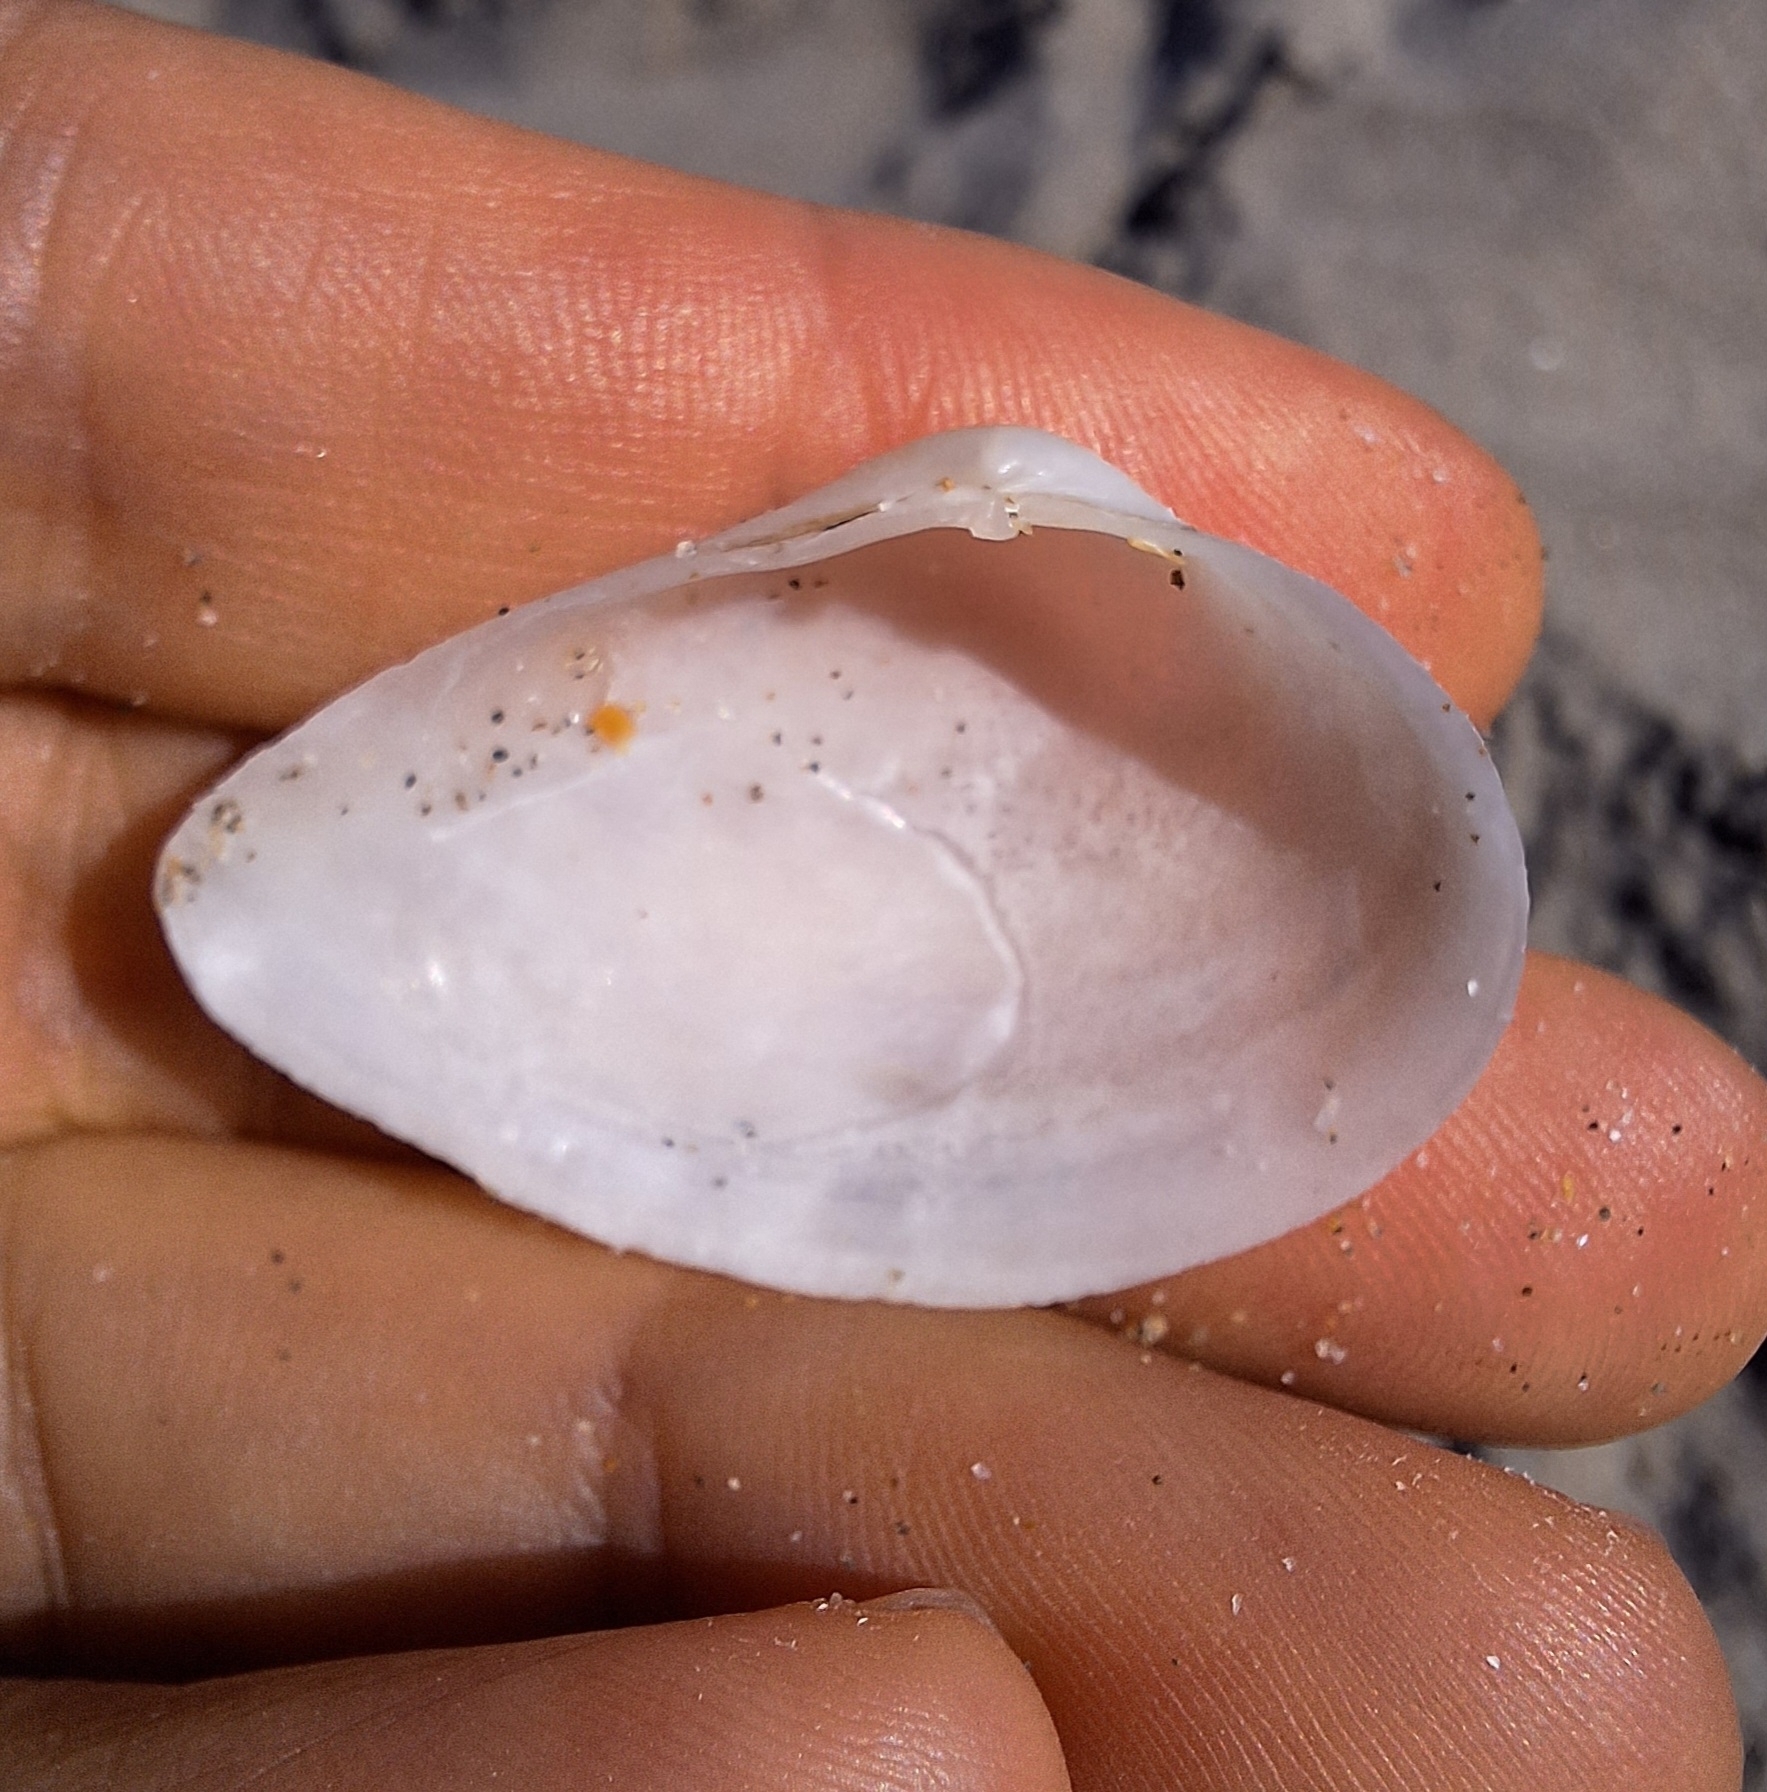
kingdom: Animalia
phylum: Mollusca
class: Bivalvia
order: Cardiida
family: Tellinidae
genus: Gastrana
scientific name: Gastrana fragilis
